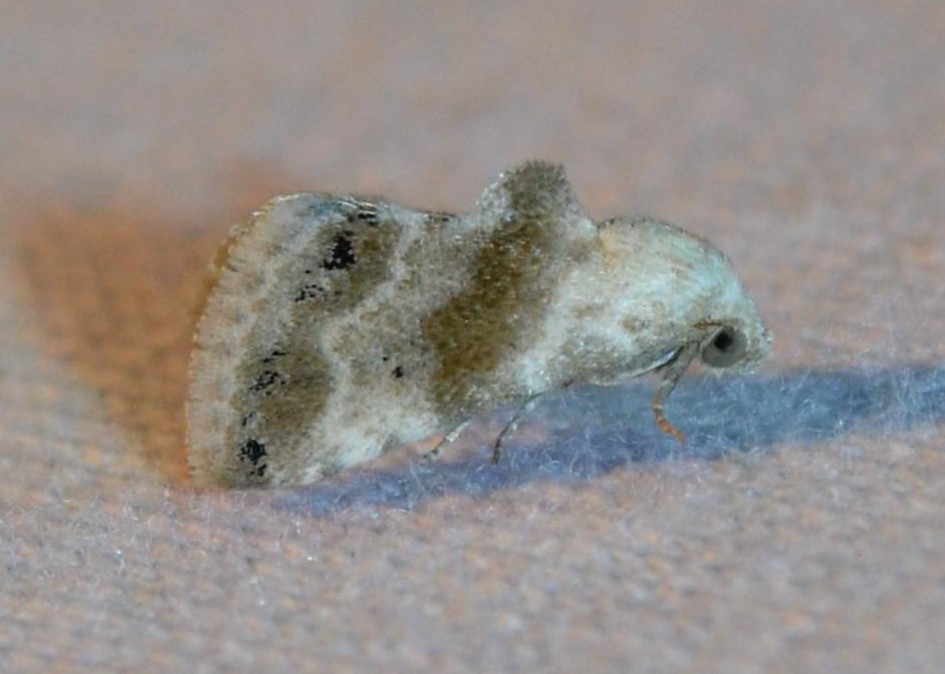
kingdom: Animalia
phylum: Arthropoda
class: Insecta
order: Lepidoptera
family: Noctuidae
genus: Eublemma
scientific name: Eublemma minima
